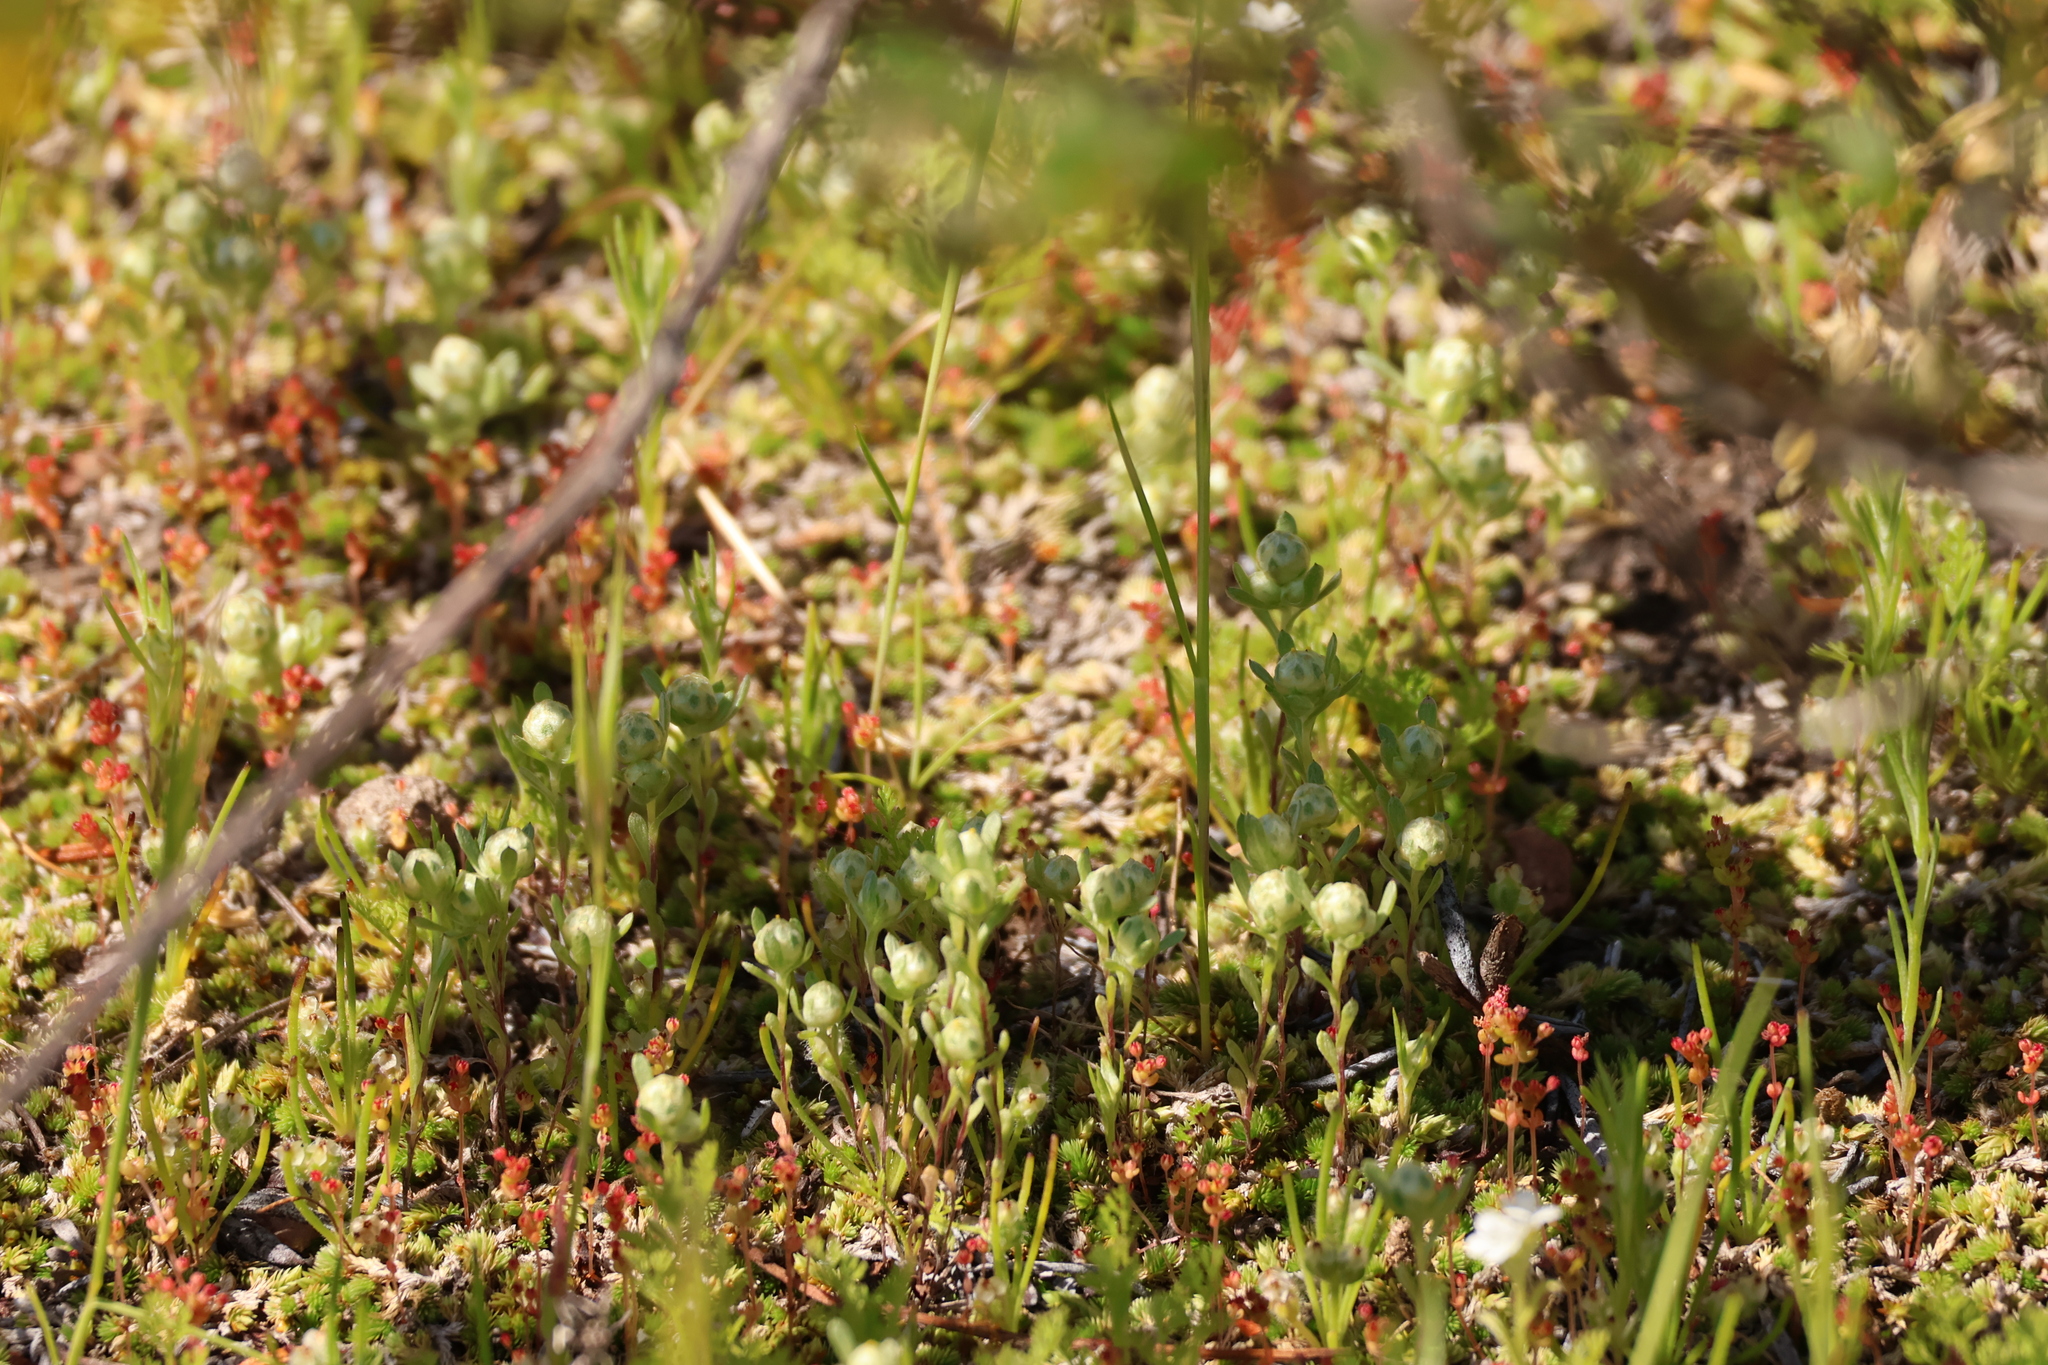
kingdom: Plantae
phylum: Tracheophyta
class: Magnoliopsida
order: Asterales
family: Asteraceae
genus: Stylocline
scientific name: Stylocline gnaphaloides
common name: Everlasting nest-straw
